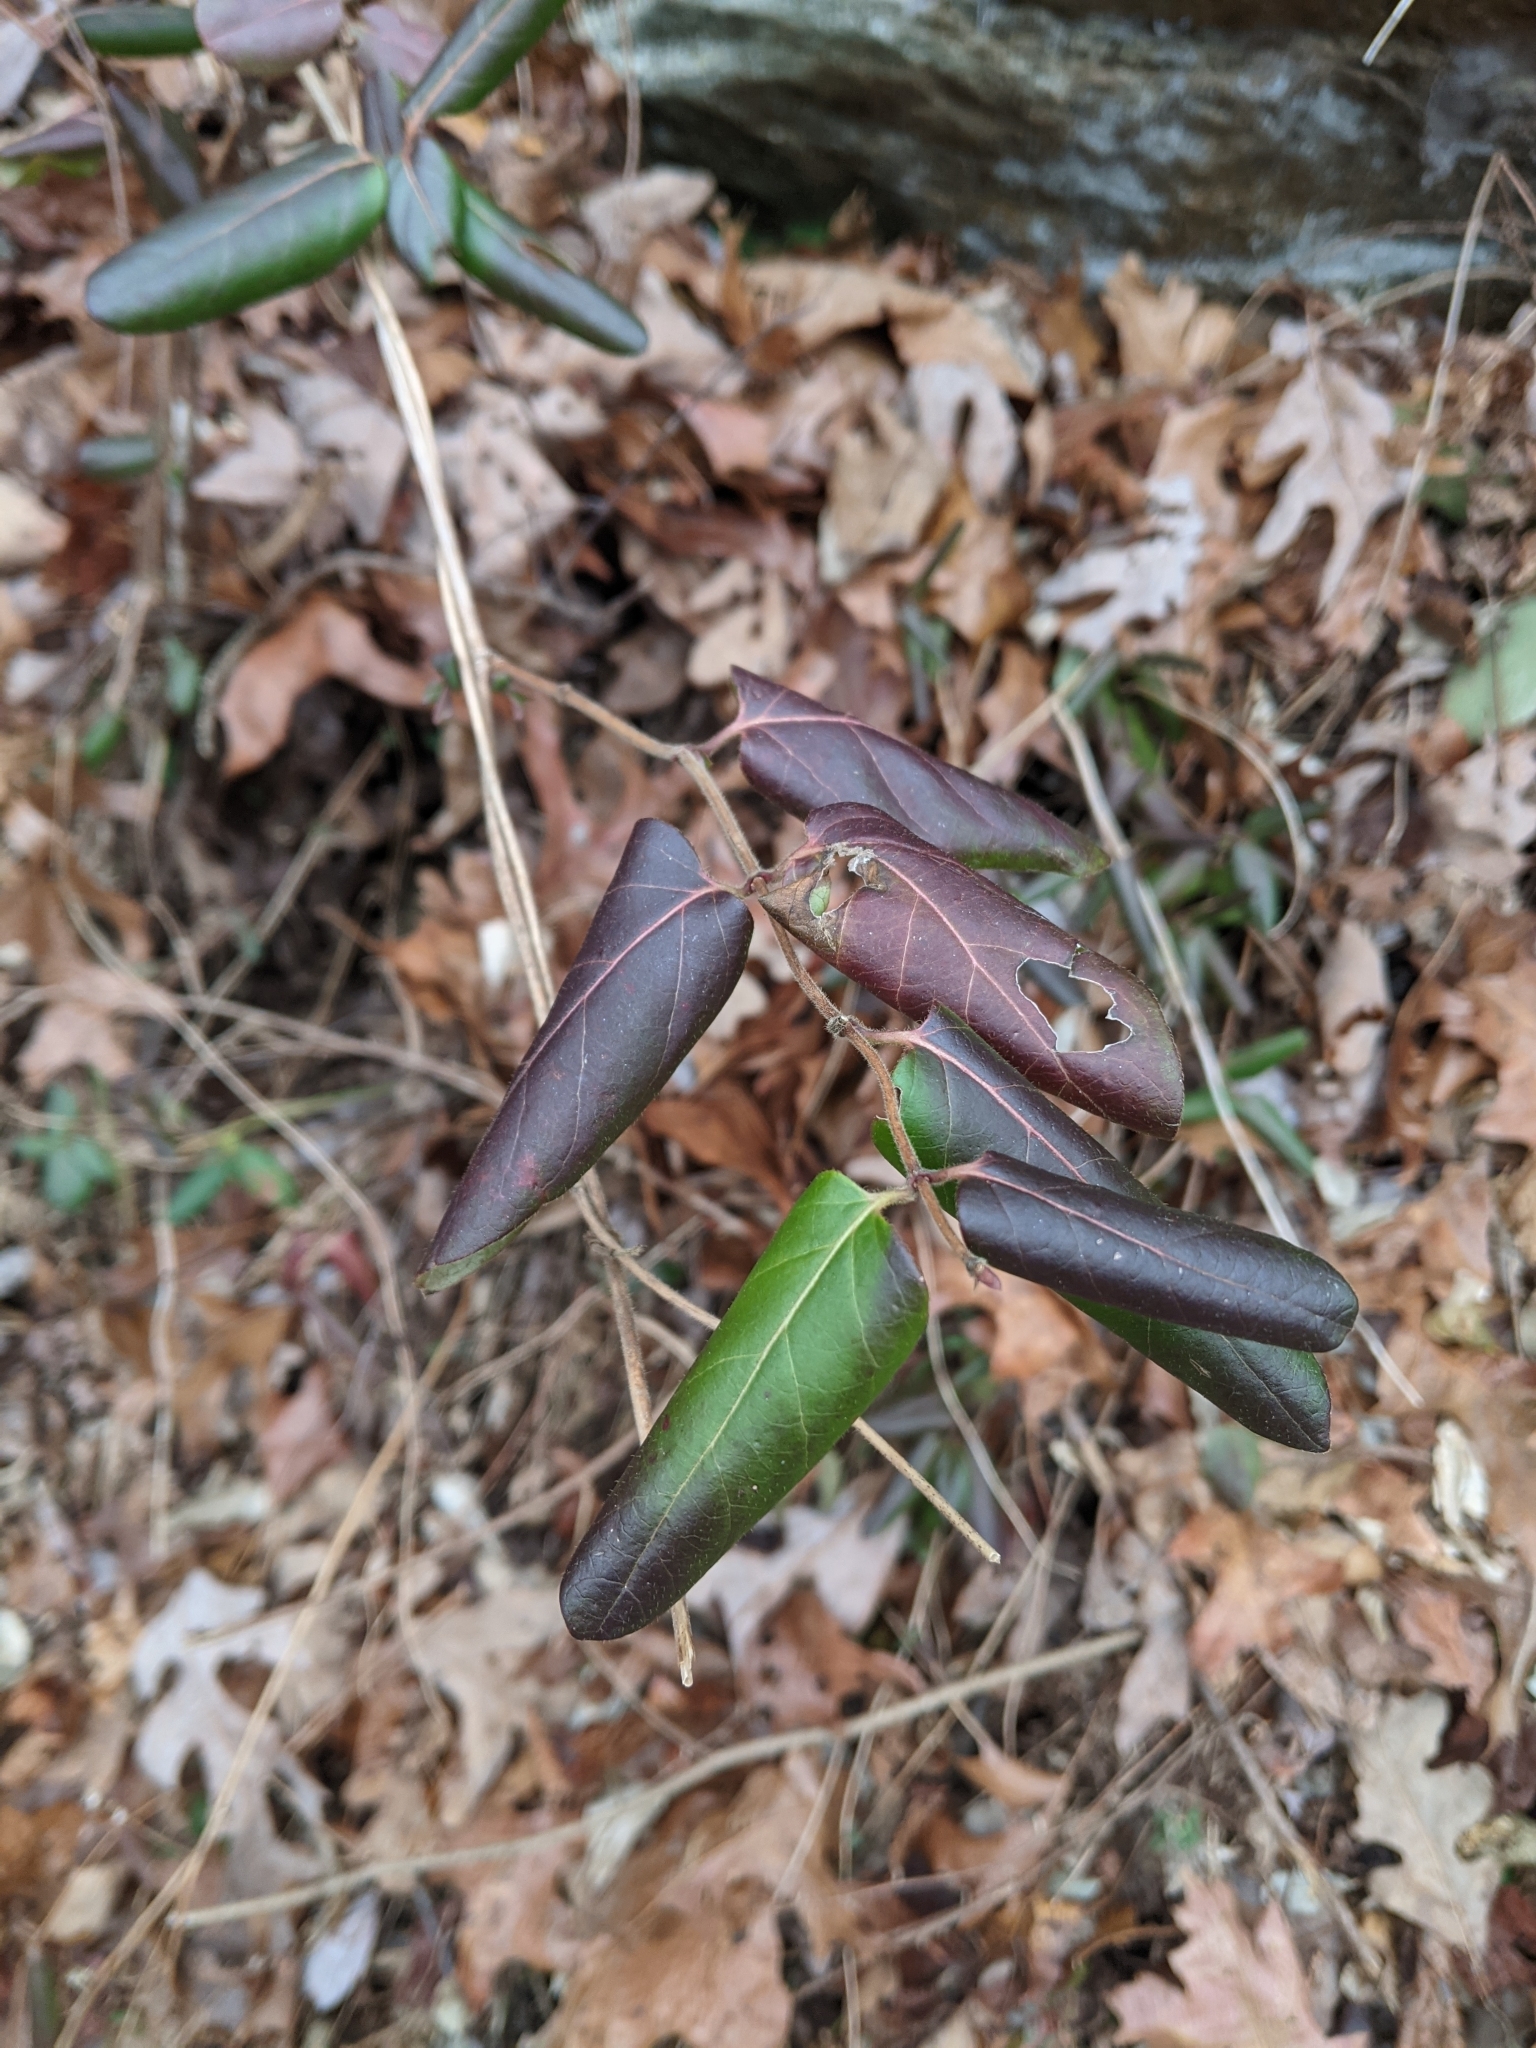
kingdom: Plantae
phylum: Tracheophyta
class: Magnoliopsida
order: Dipsacales
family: Caprifoliaceae
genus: Lonicera
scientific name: Lonicera japonica
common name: Japanese honeysuckle
